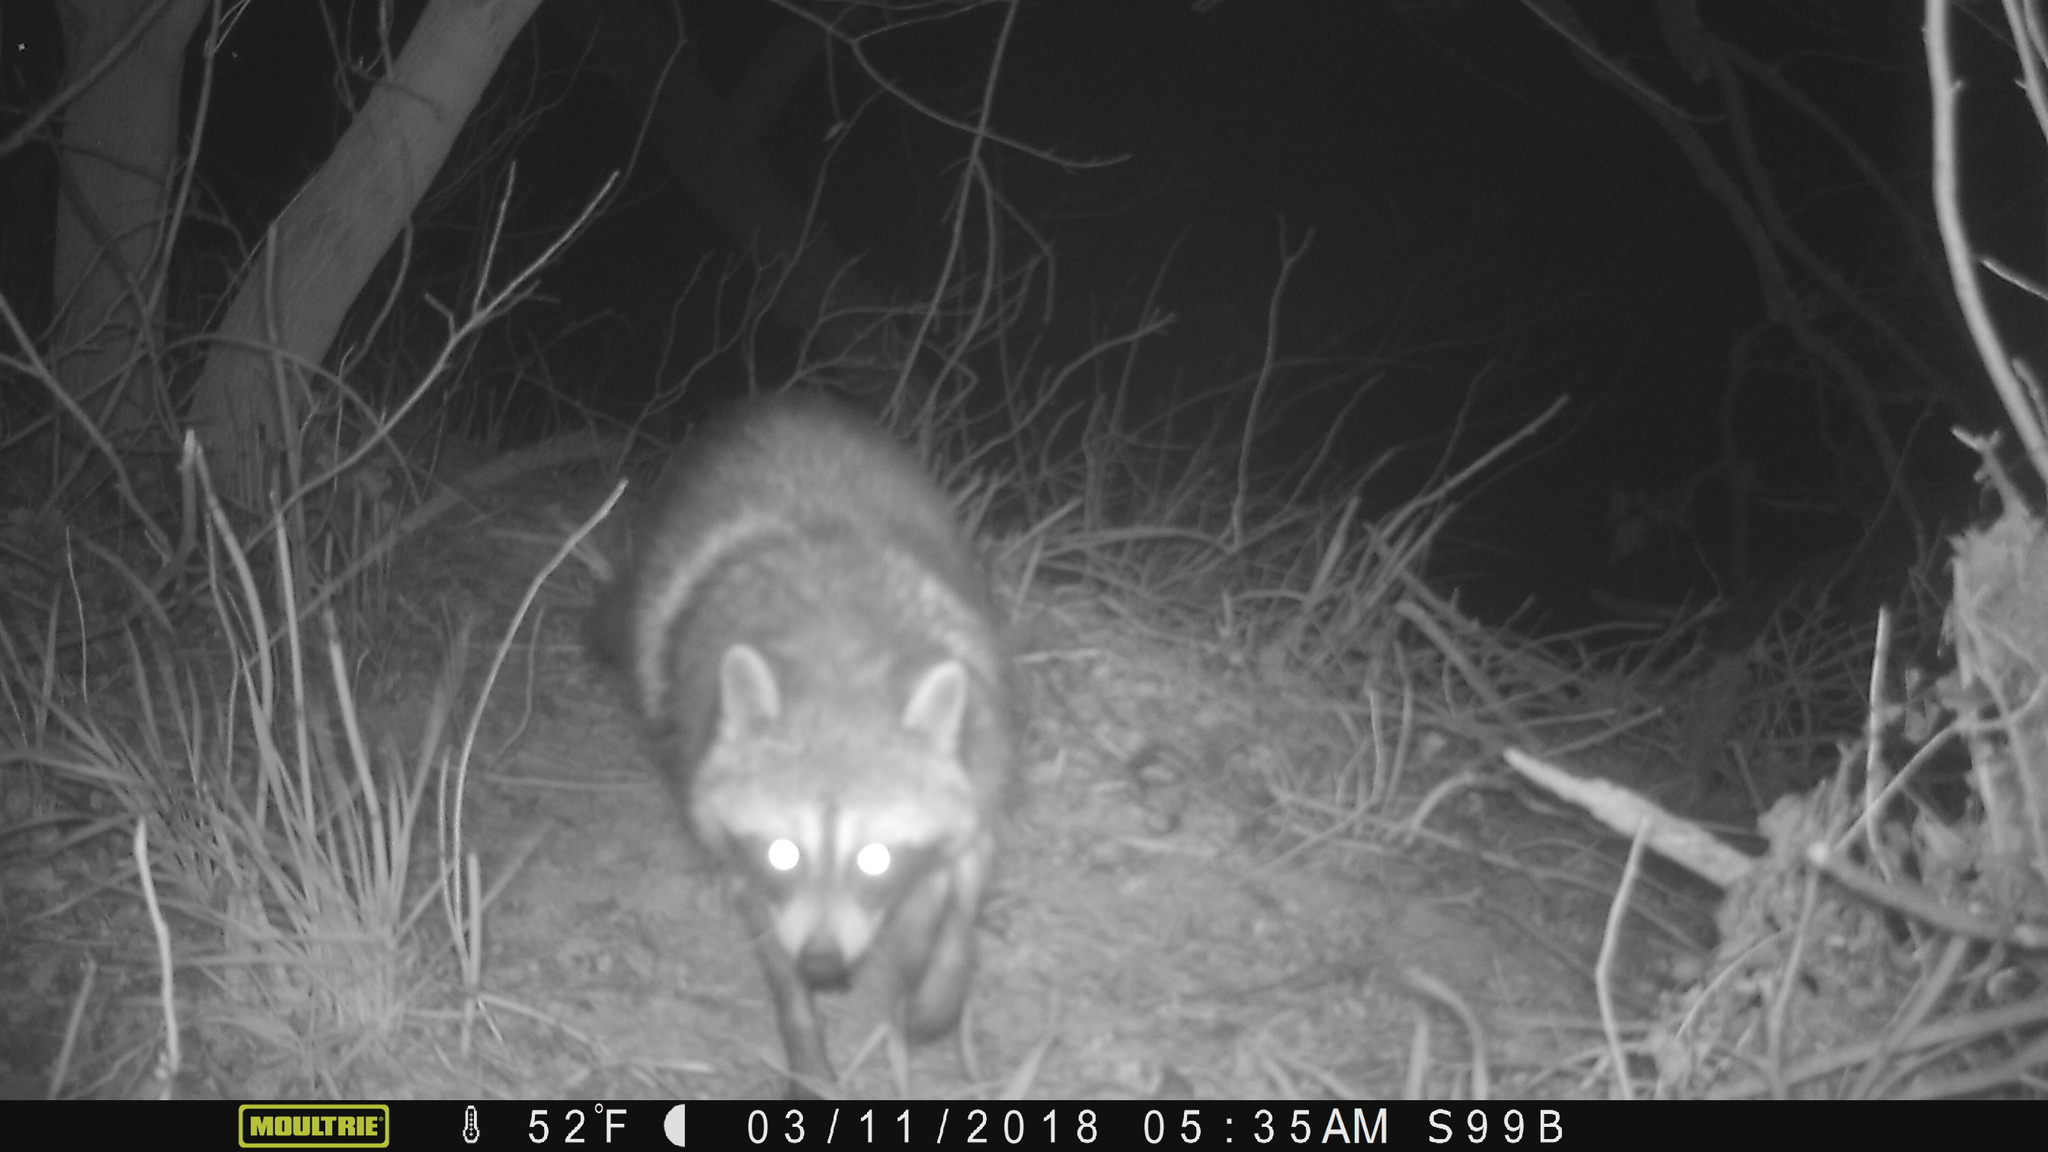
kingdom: Animalia
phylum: Chordata
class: Mammalia
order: Carnivora
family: Procyonidae
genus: Procyon
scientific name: Procyon lotor
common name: Raccoon
